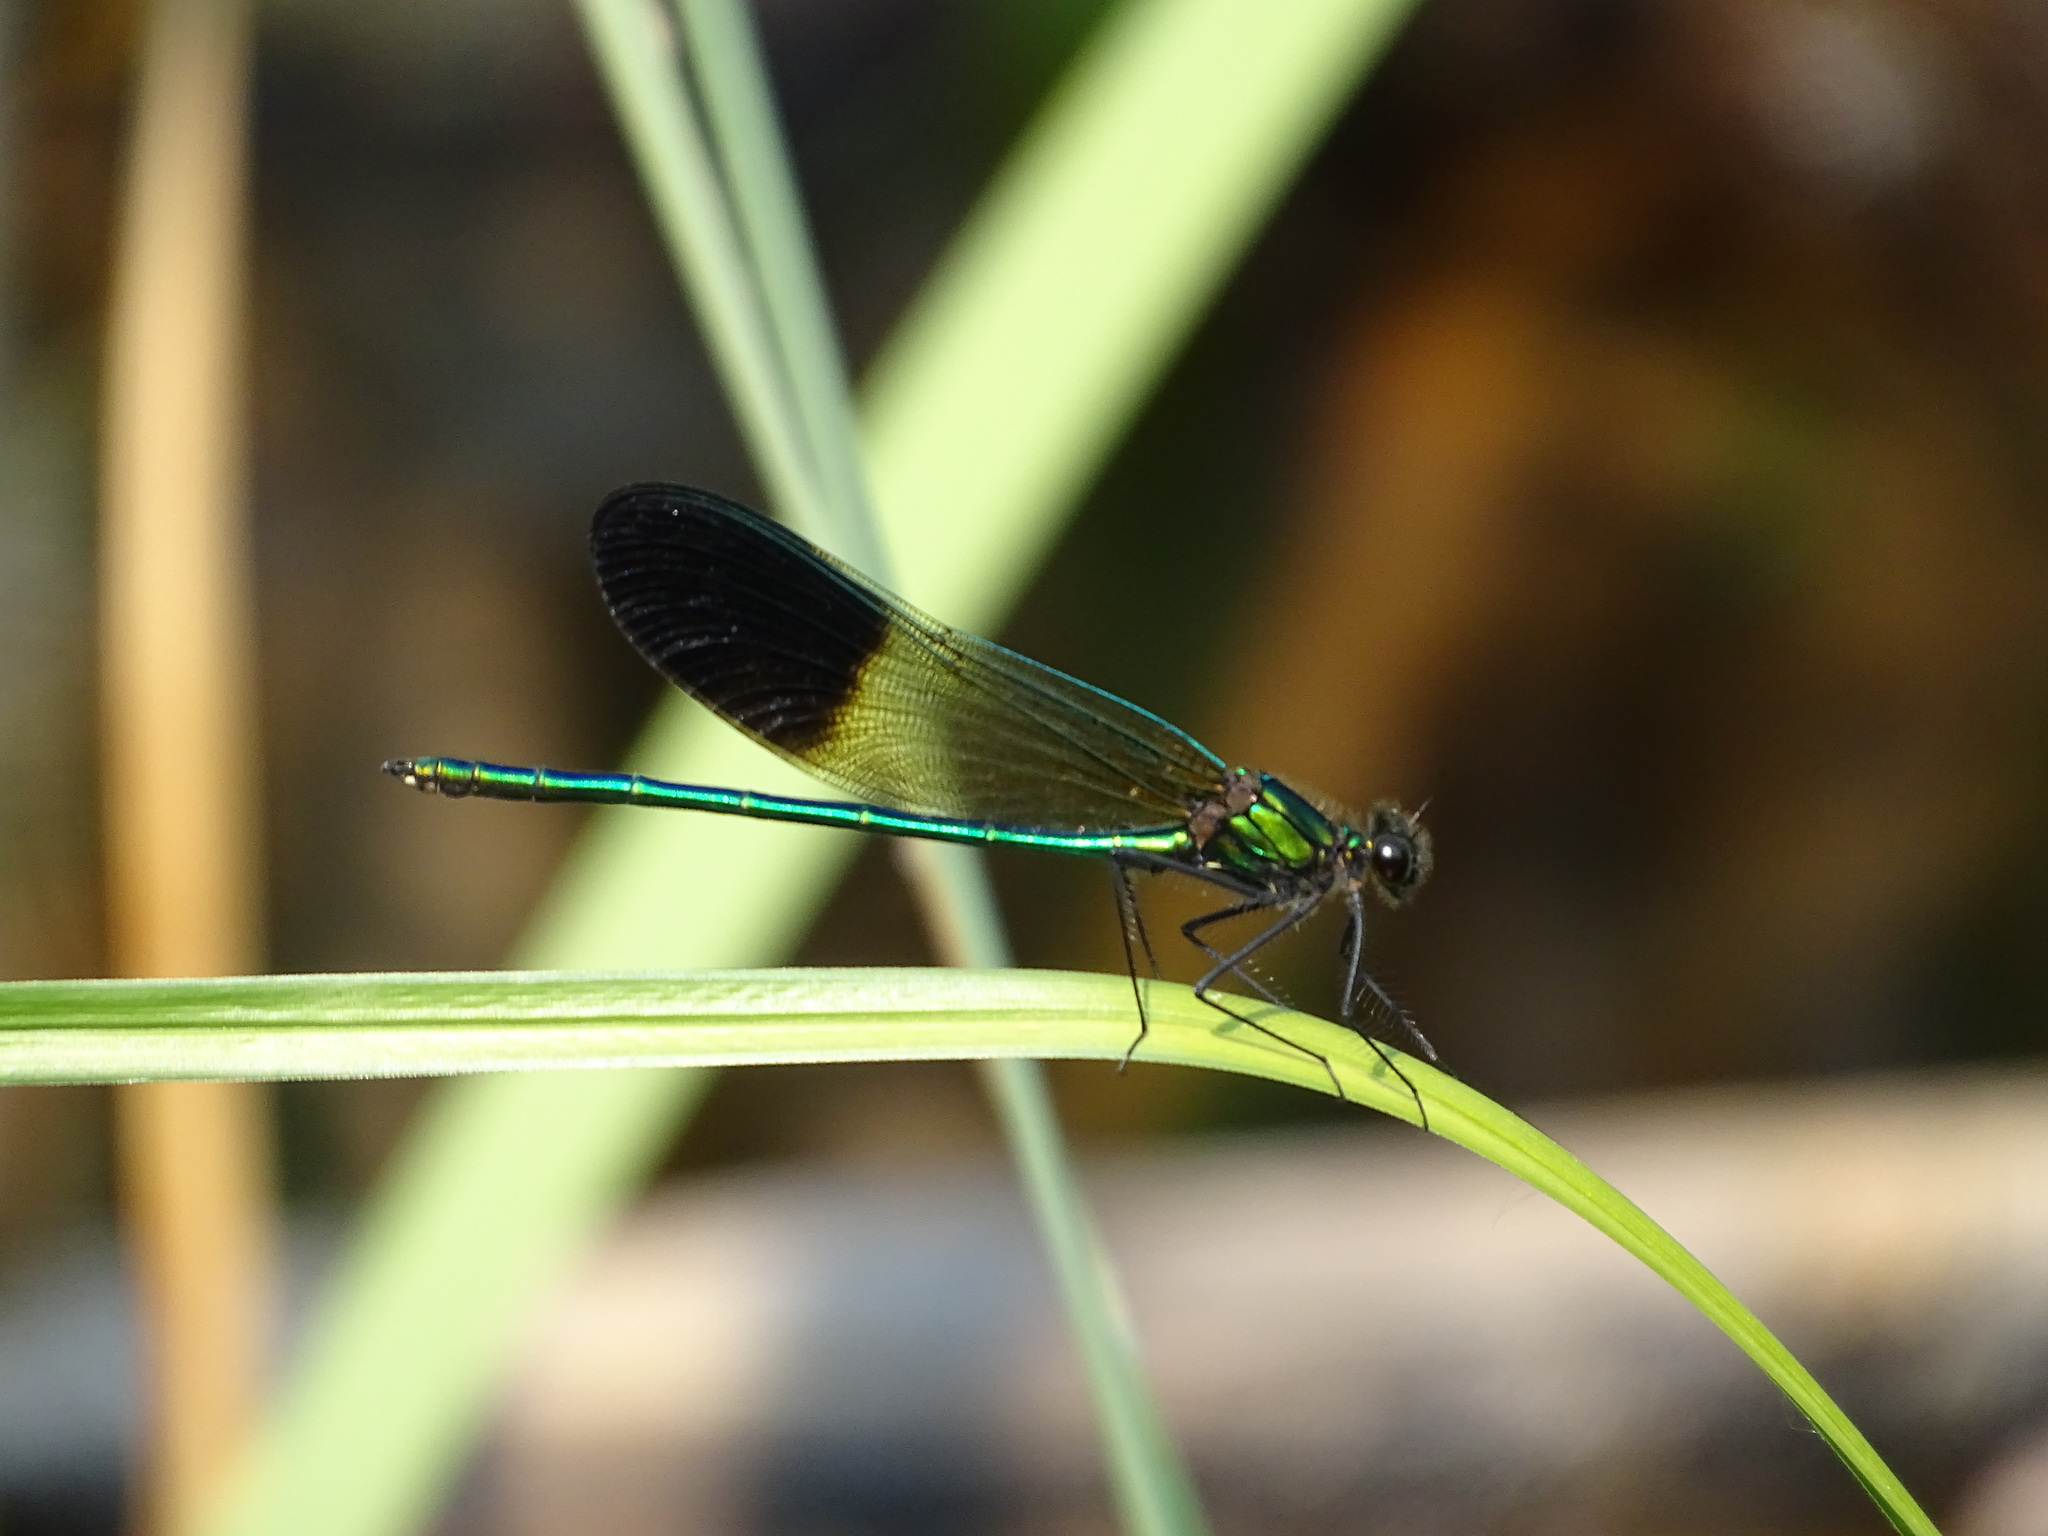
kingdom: Animalia
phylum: Arthropoda
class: Insecta
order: Odonata
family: Calopterygidae
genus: Calopteryx
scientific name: Calopteryx aequabilis
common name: River jewelwing
